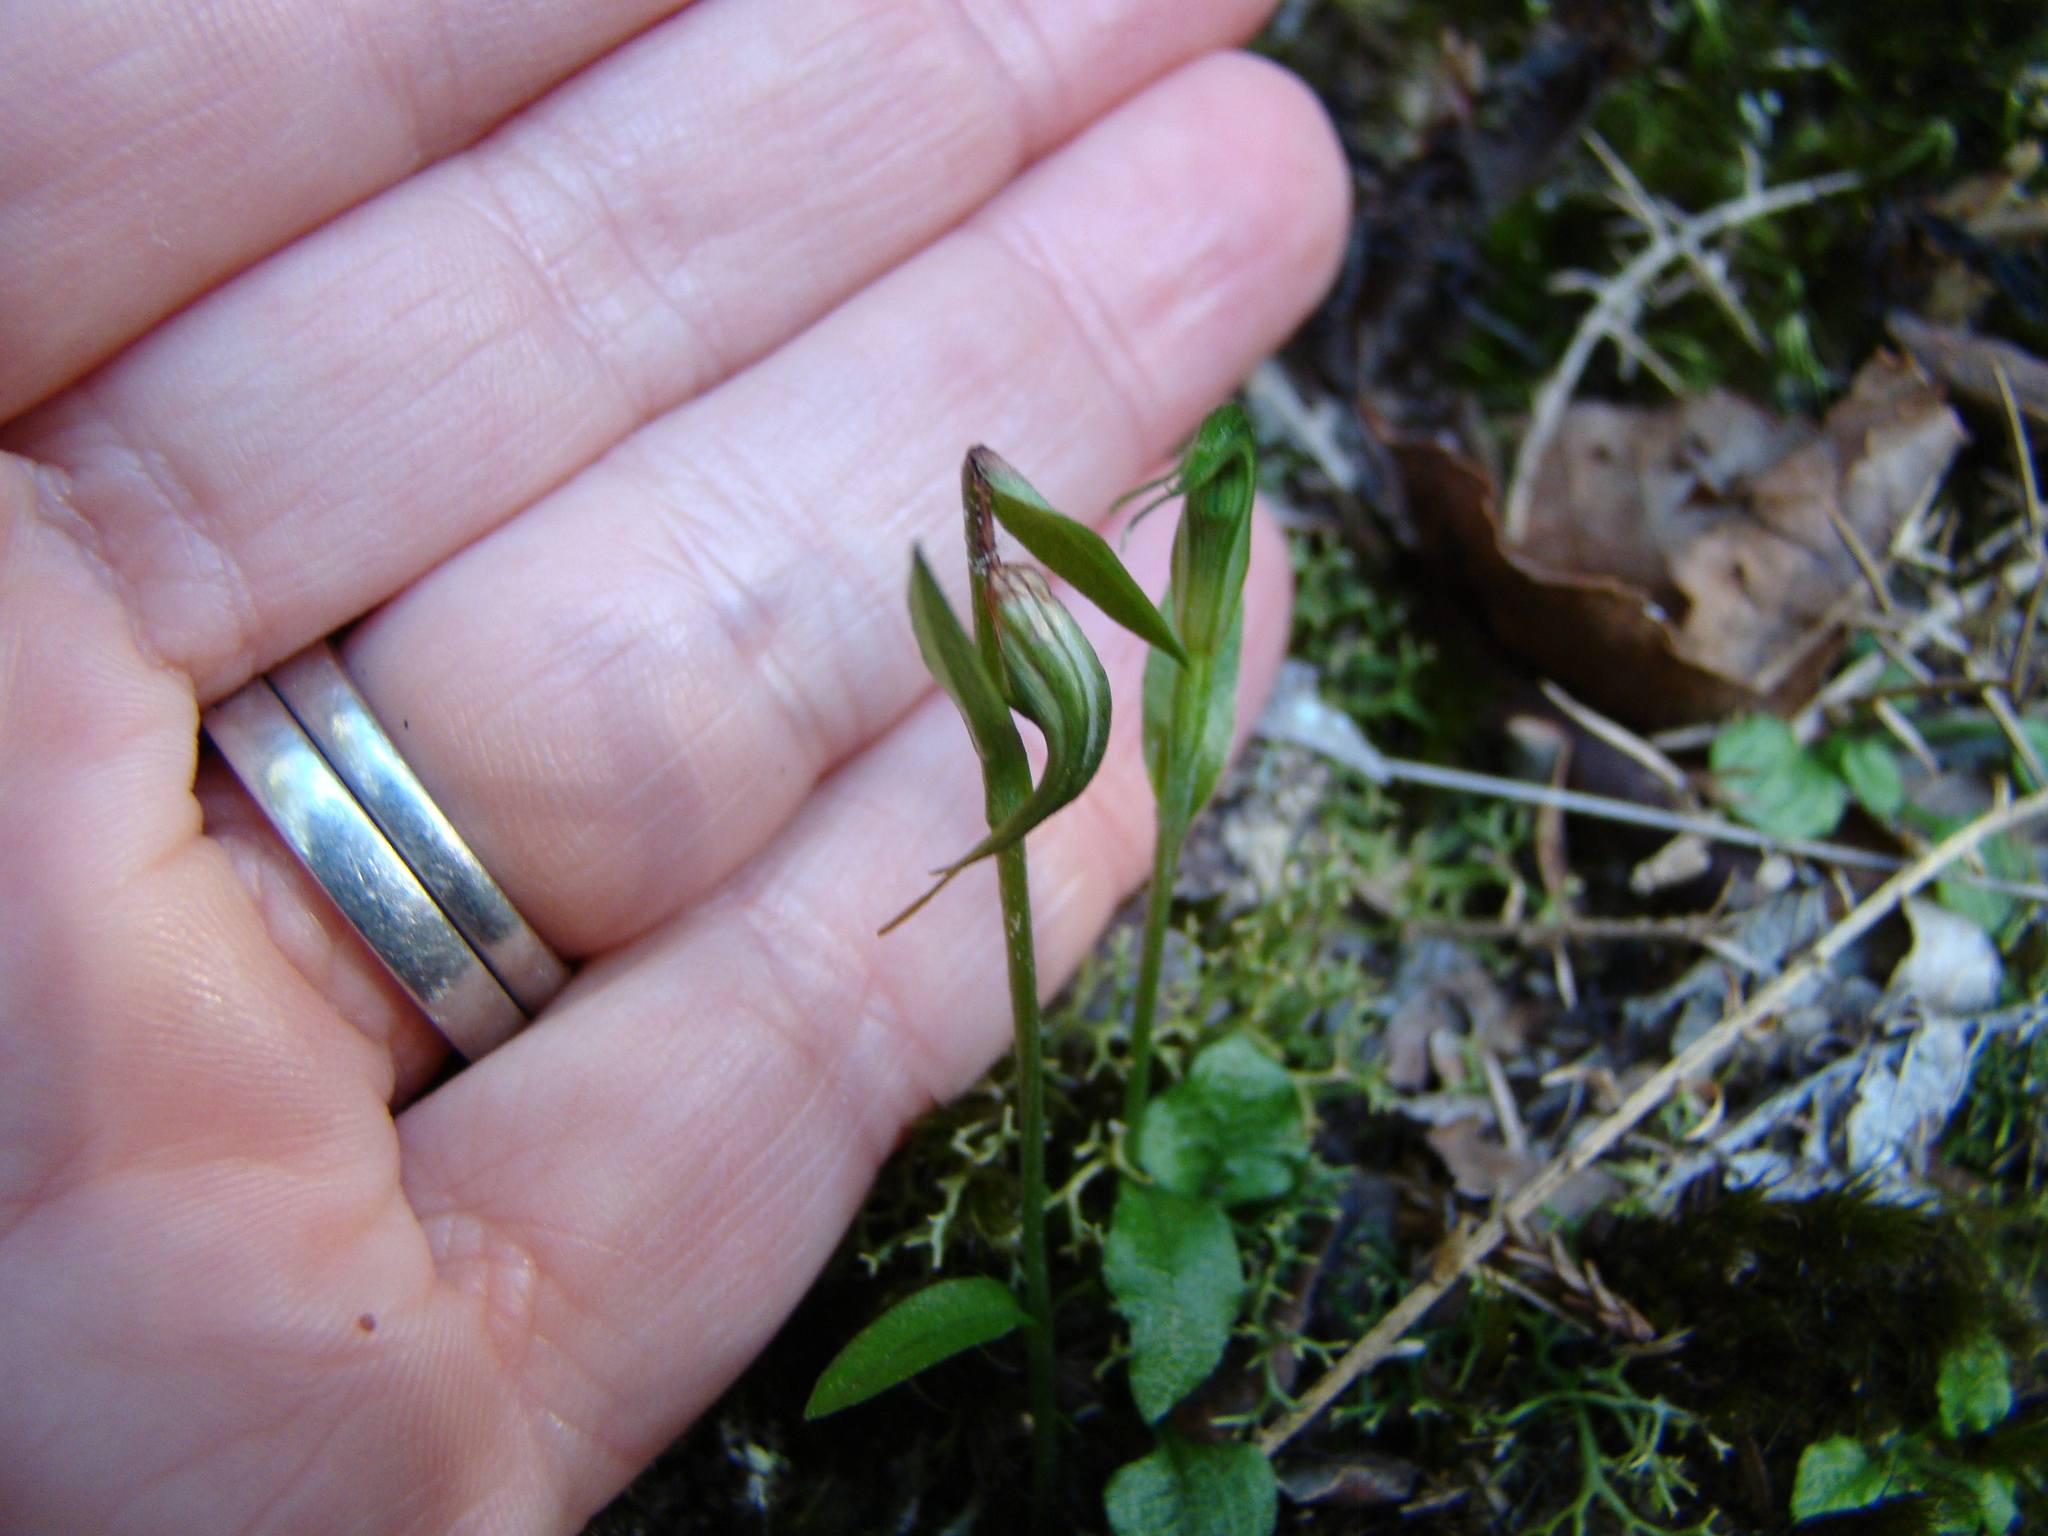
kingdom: Plantae
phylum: Tracheophyta
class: Liliopsida
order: Asparagales
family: Orchidaceae
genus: Pterostylis
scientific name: Pterostylis trullifolia
